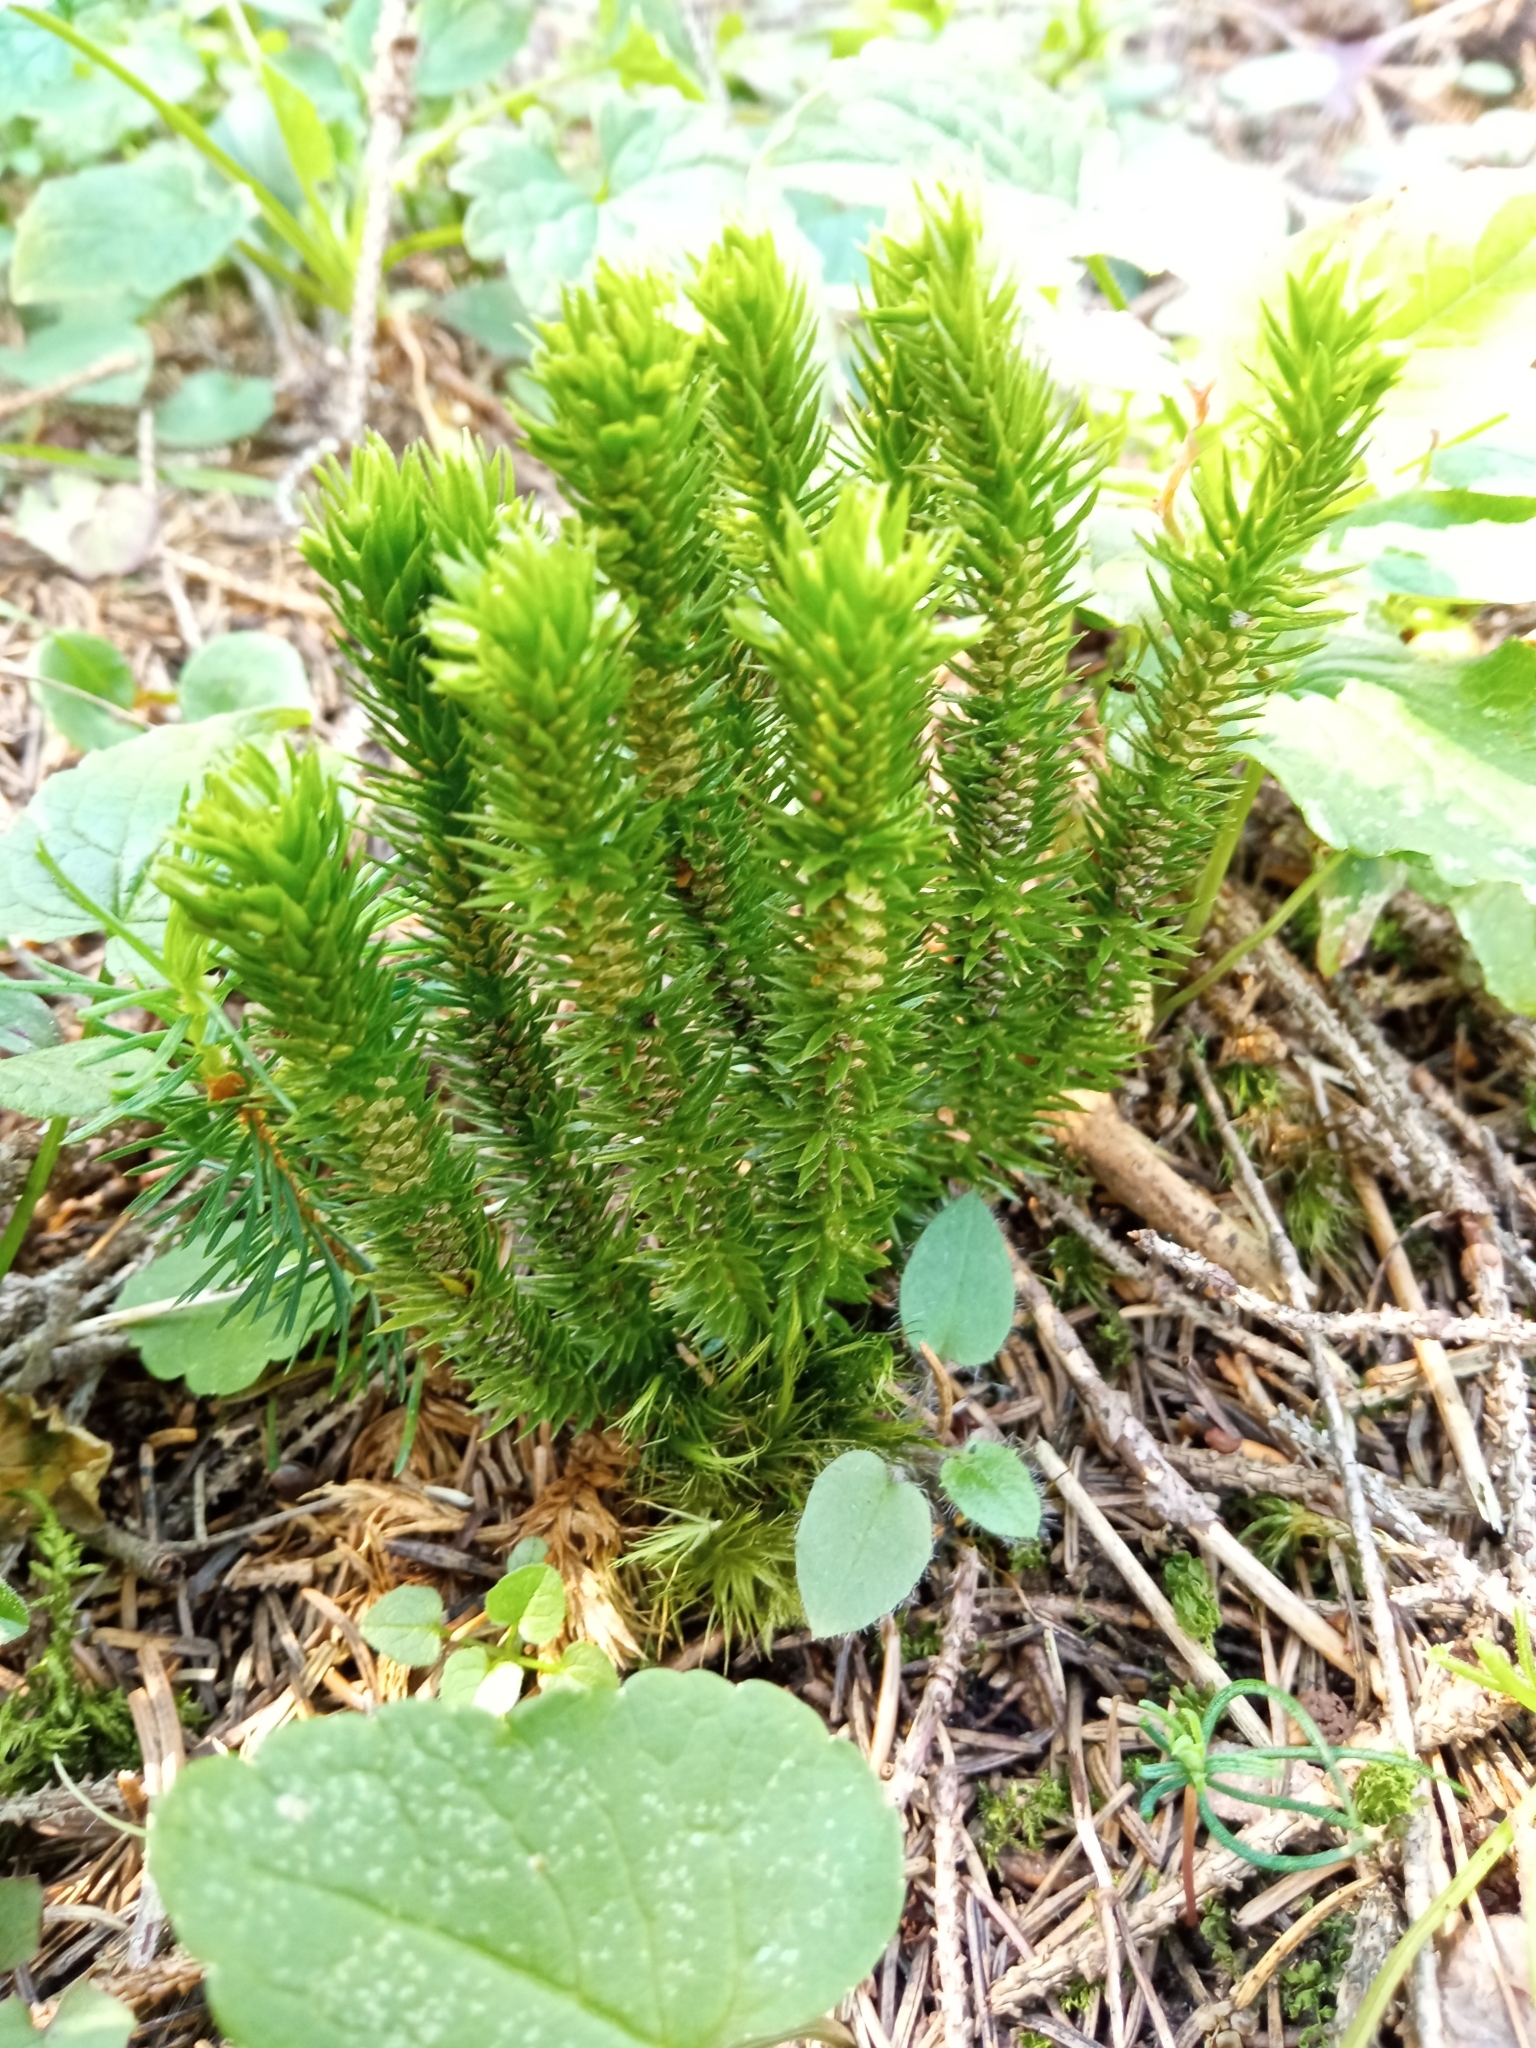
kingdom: Plantae
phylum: Tracheophyta
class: Lycopodiopsida
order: Lycopodiales
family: Lycopodiaceae
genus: Huperzia
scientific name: Huperzia selago
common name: Northern firmoss
